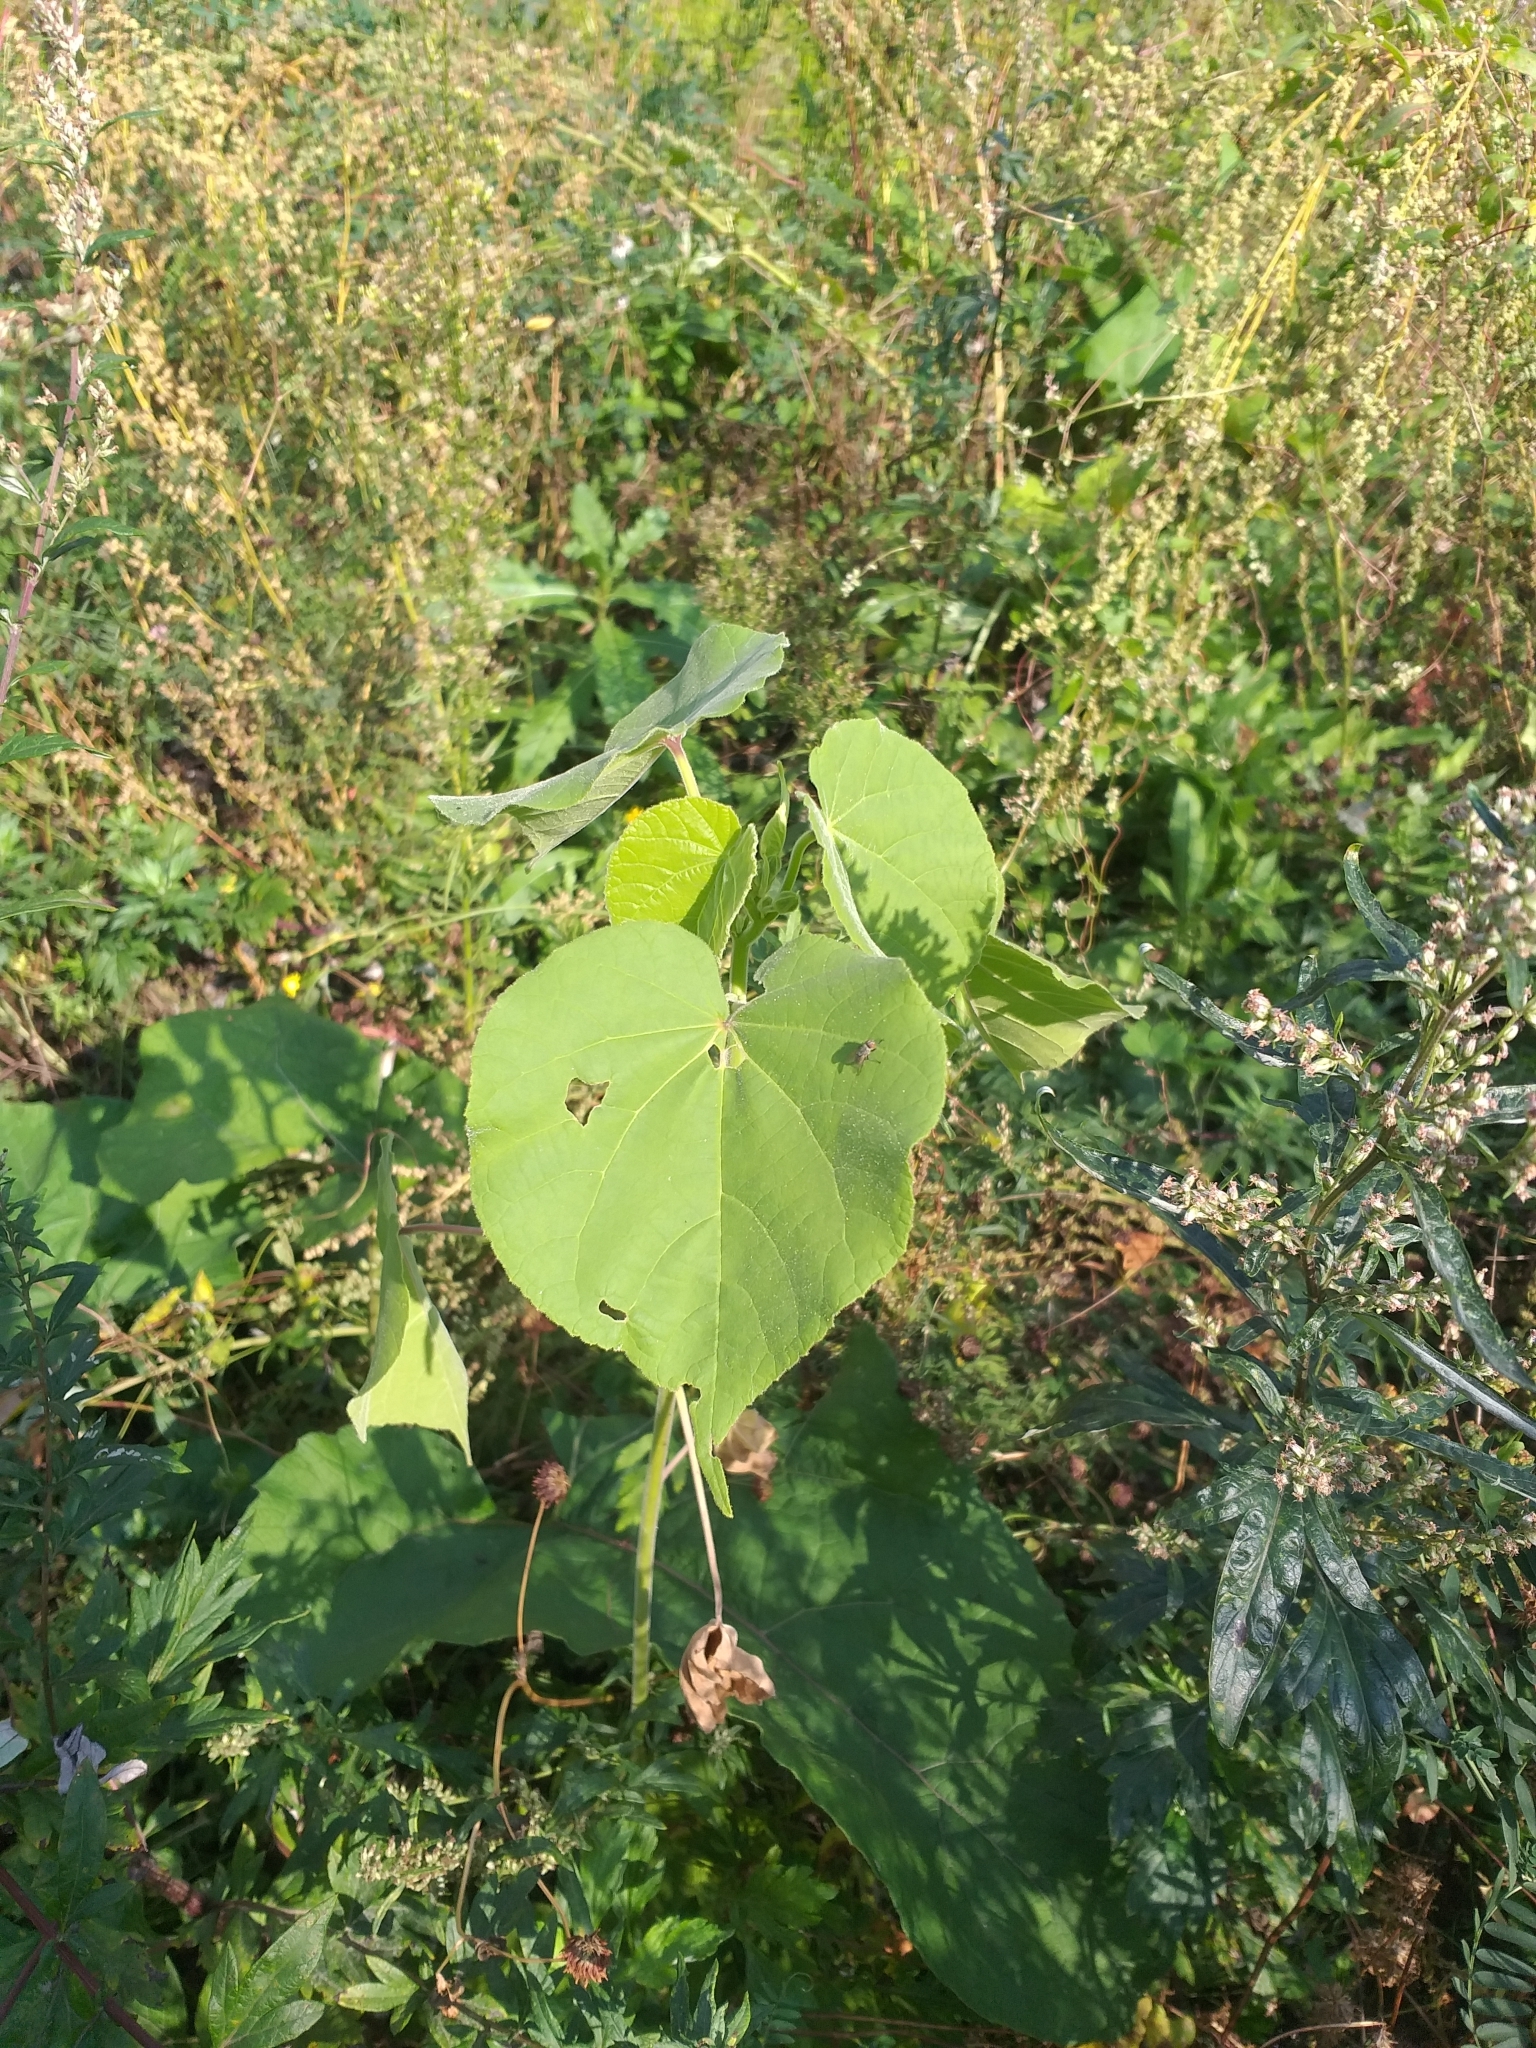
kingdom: Plantae
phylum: Tracheophyta
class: Magnoliopsida
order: Malvales
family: Malvaceae
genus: Abutilon
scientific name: Abutilon theophrasti
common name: Velvetleaf
